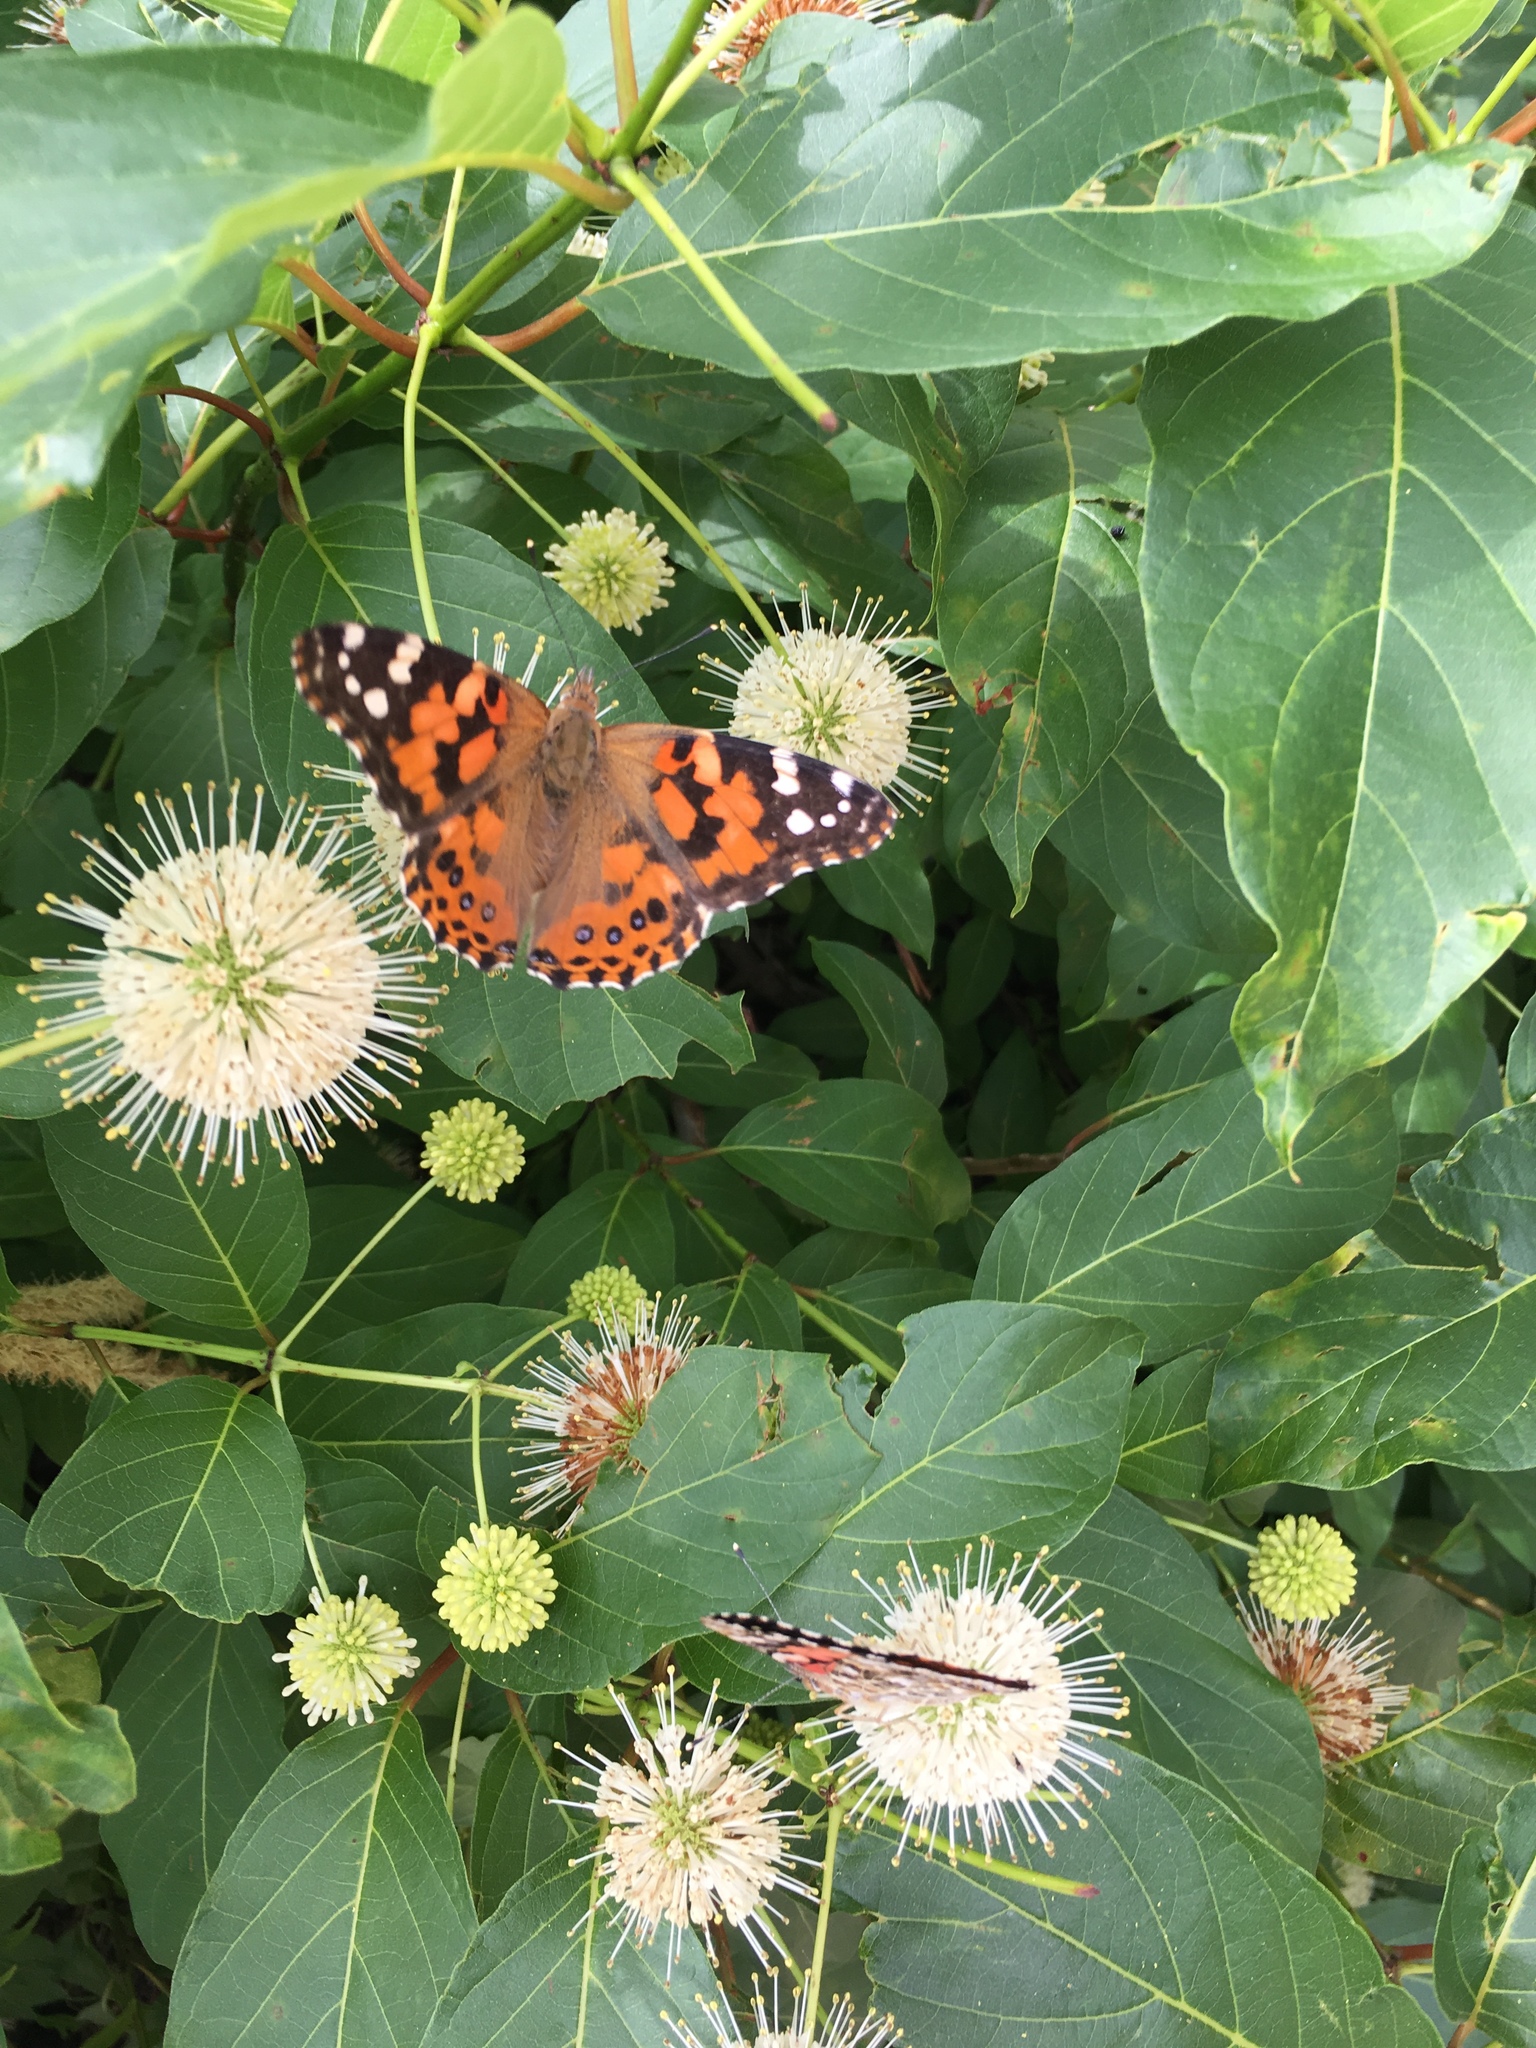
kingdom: Animalia
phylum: Arthropoda
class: Insecta
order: Lepidoptera
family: Nymphalidae
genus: Vanessa
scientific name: Vanessa cardui
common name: Painted lady
